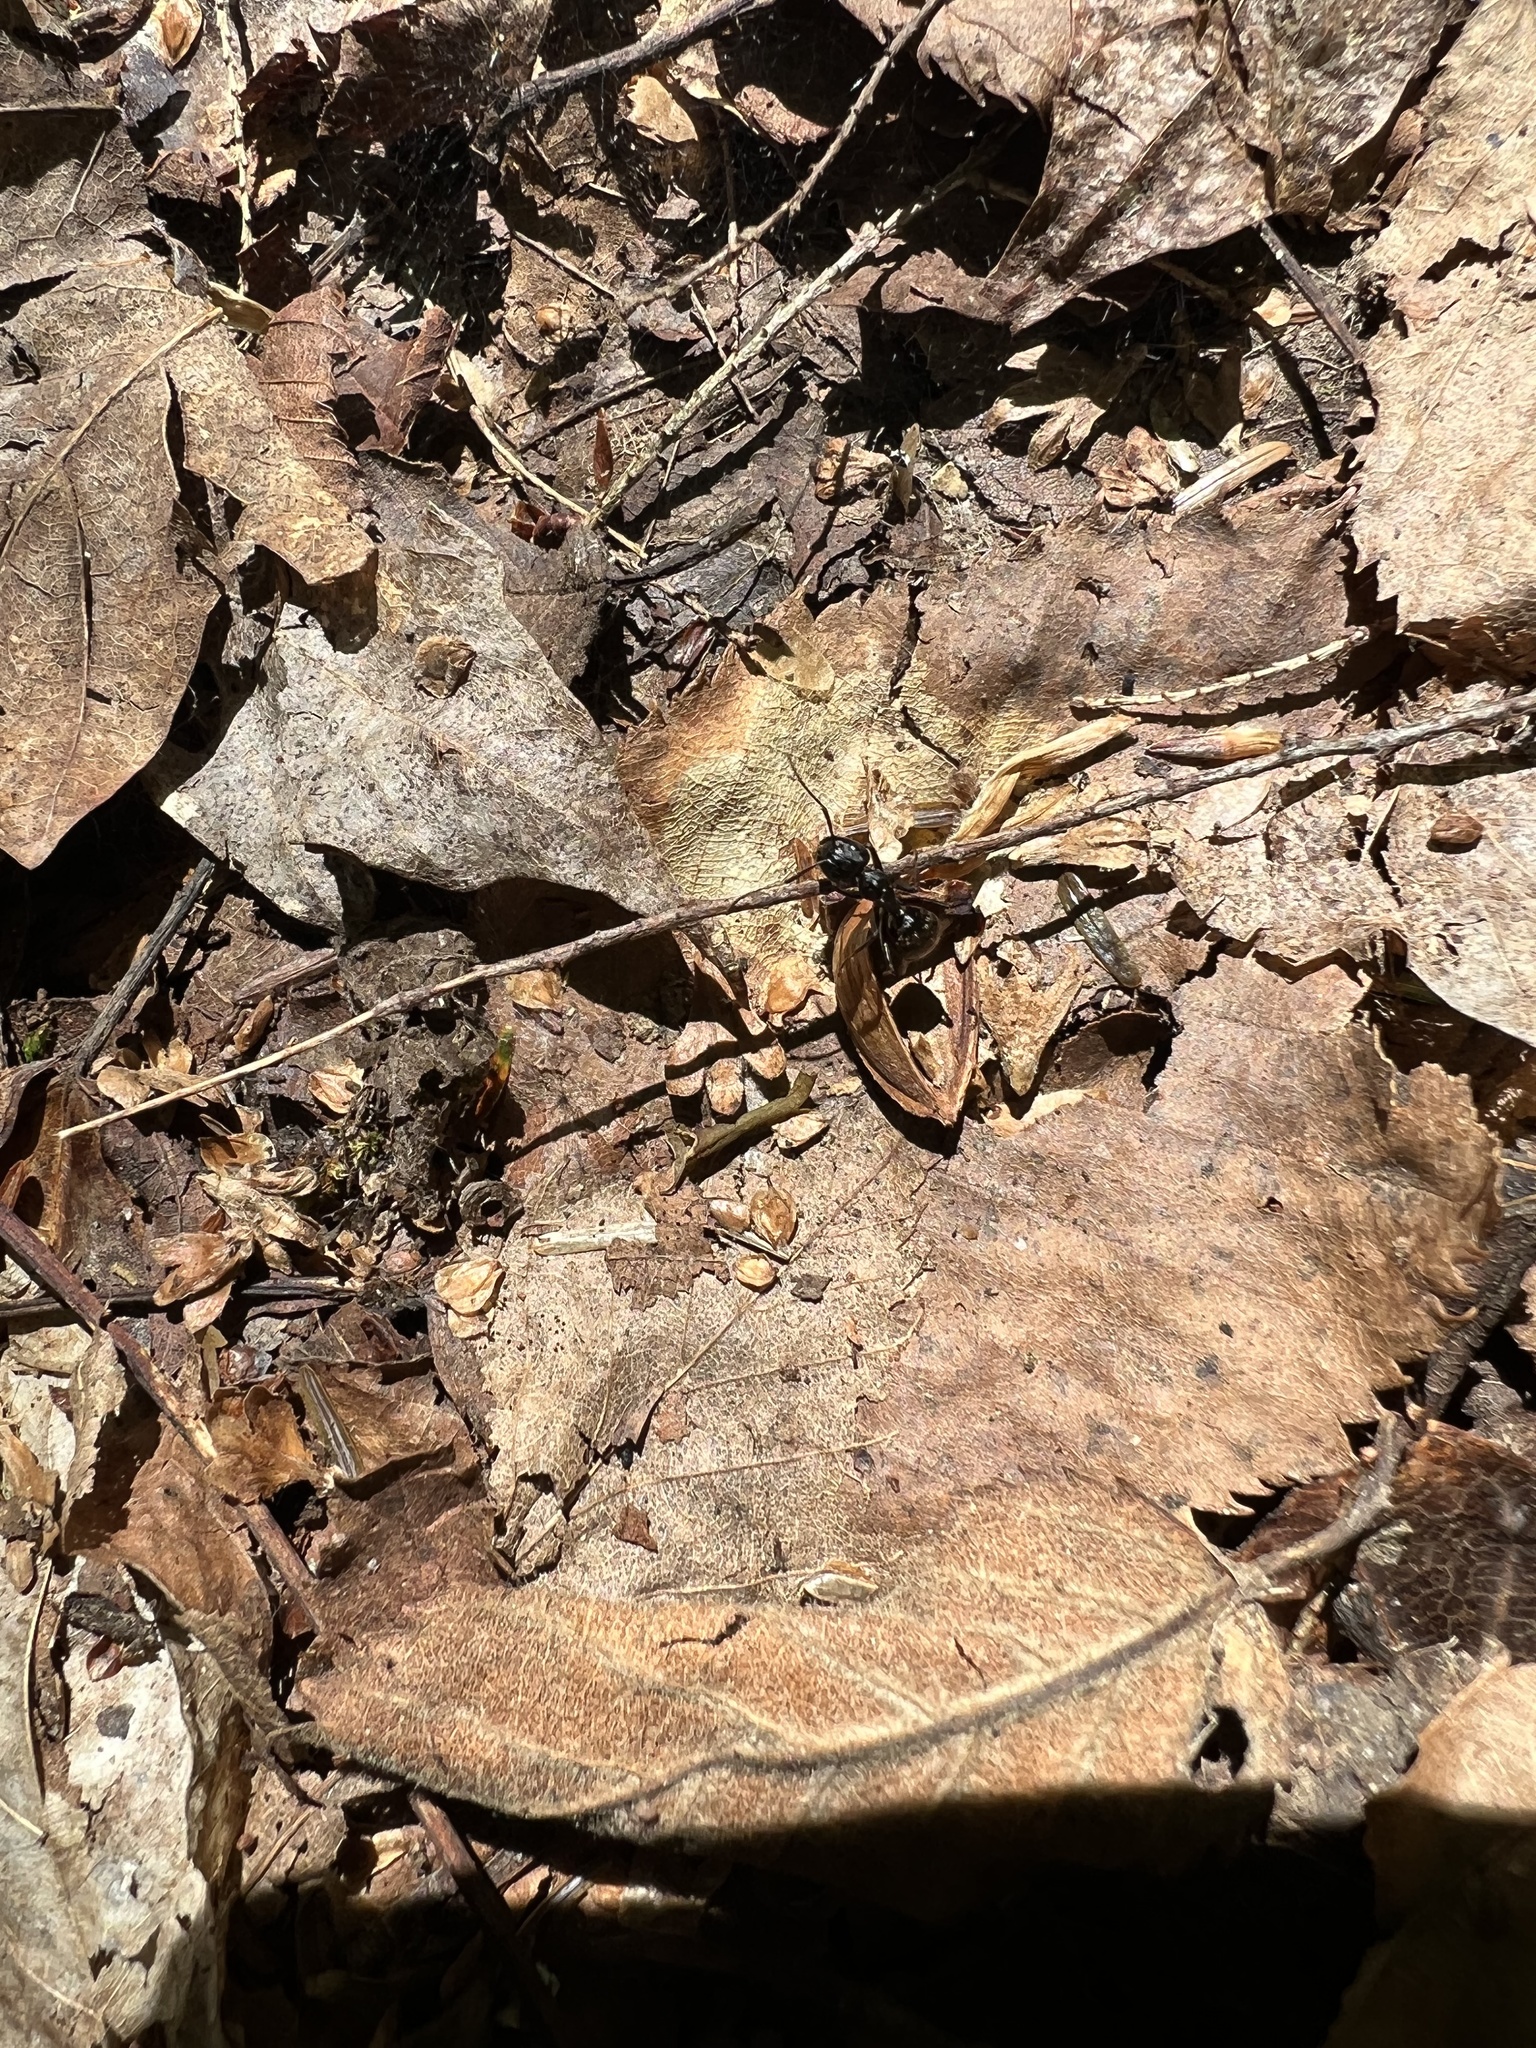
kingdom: Animalia
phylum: Arthropoda
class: Insecta
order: Hymenoptera
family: Formicidae
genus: Camponotus
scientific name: Camponotus pennsylvanicus
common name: Black carpenter ant
